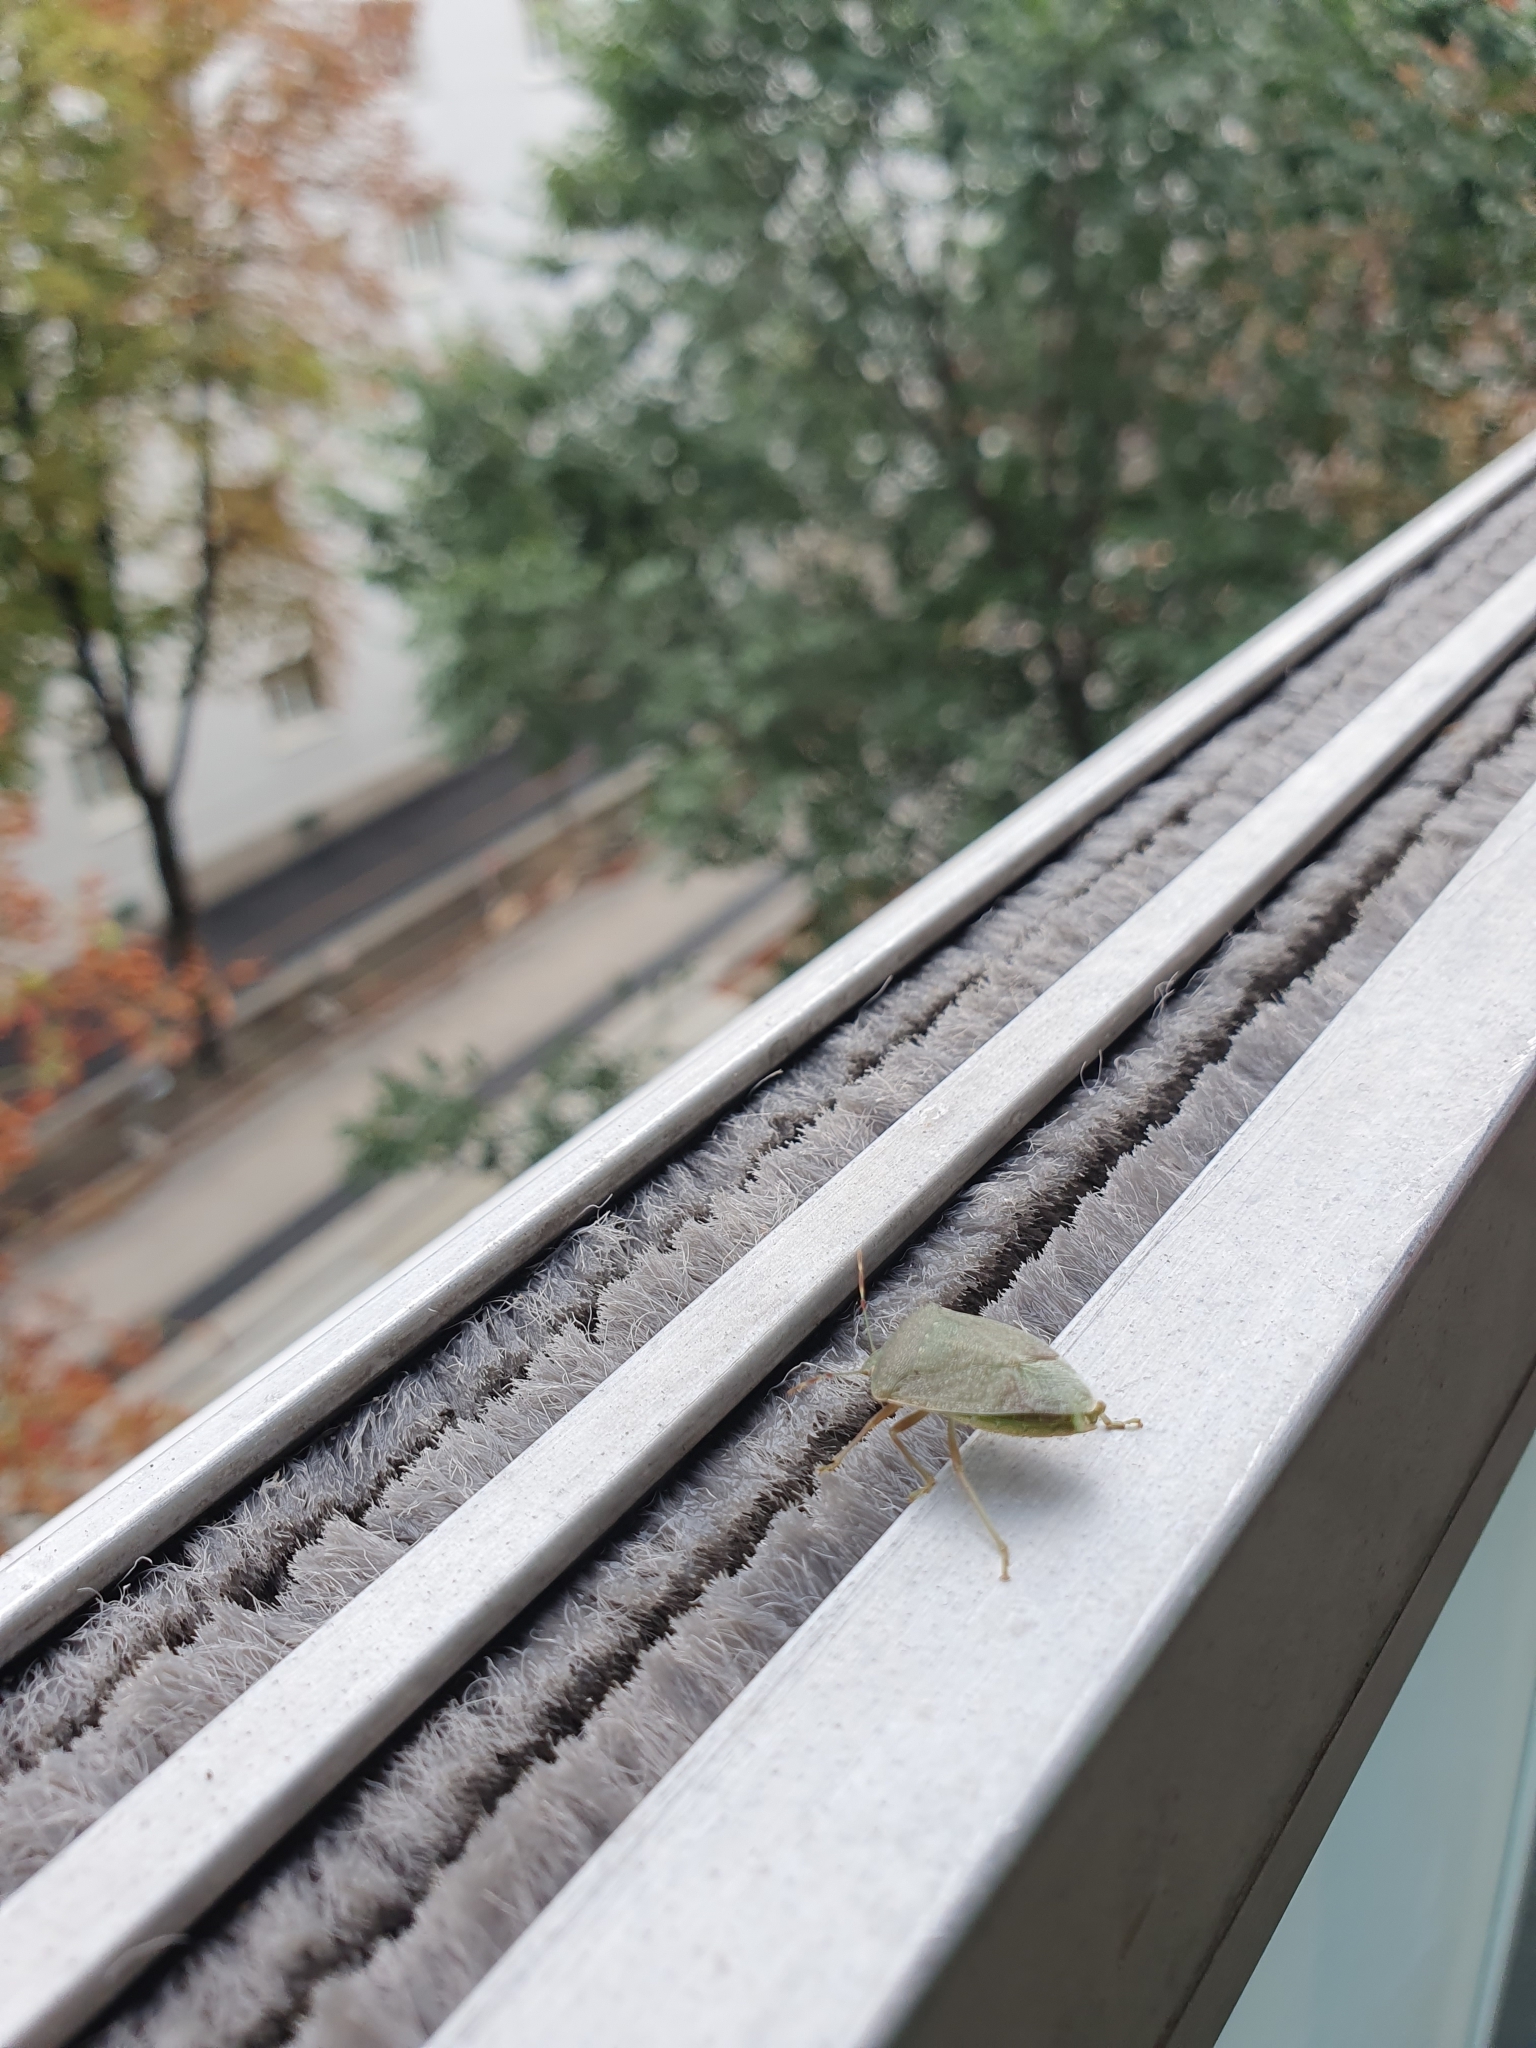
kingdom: Animalia
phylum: Arthropoda
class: Insecta
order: Hemiptera
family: Pentatomidae
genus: Nezara
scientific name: Nezara viridula
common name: Southern green stink bug
